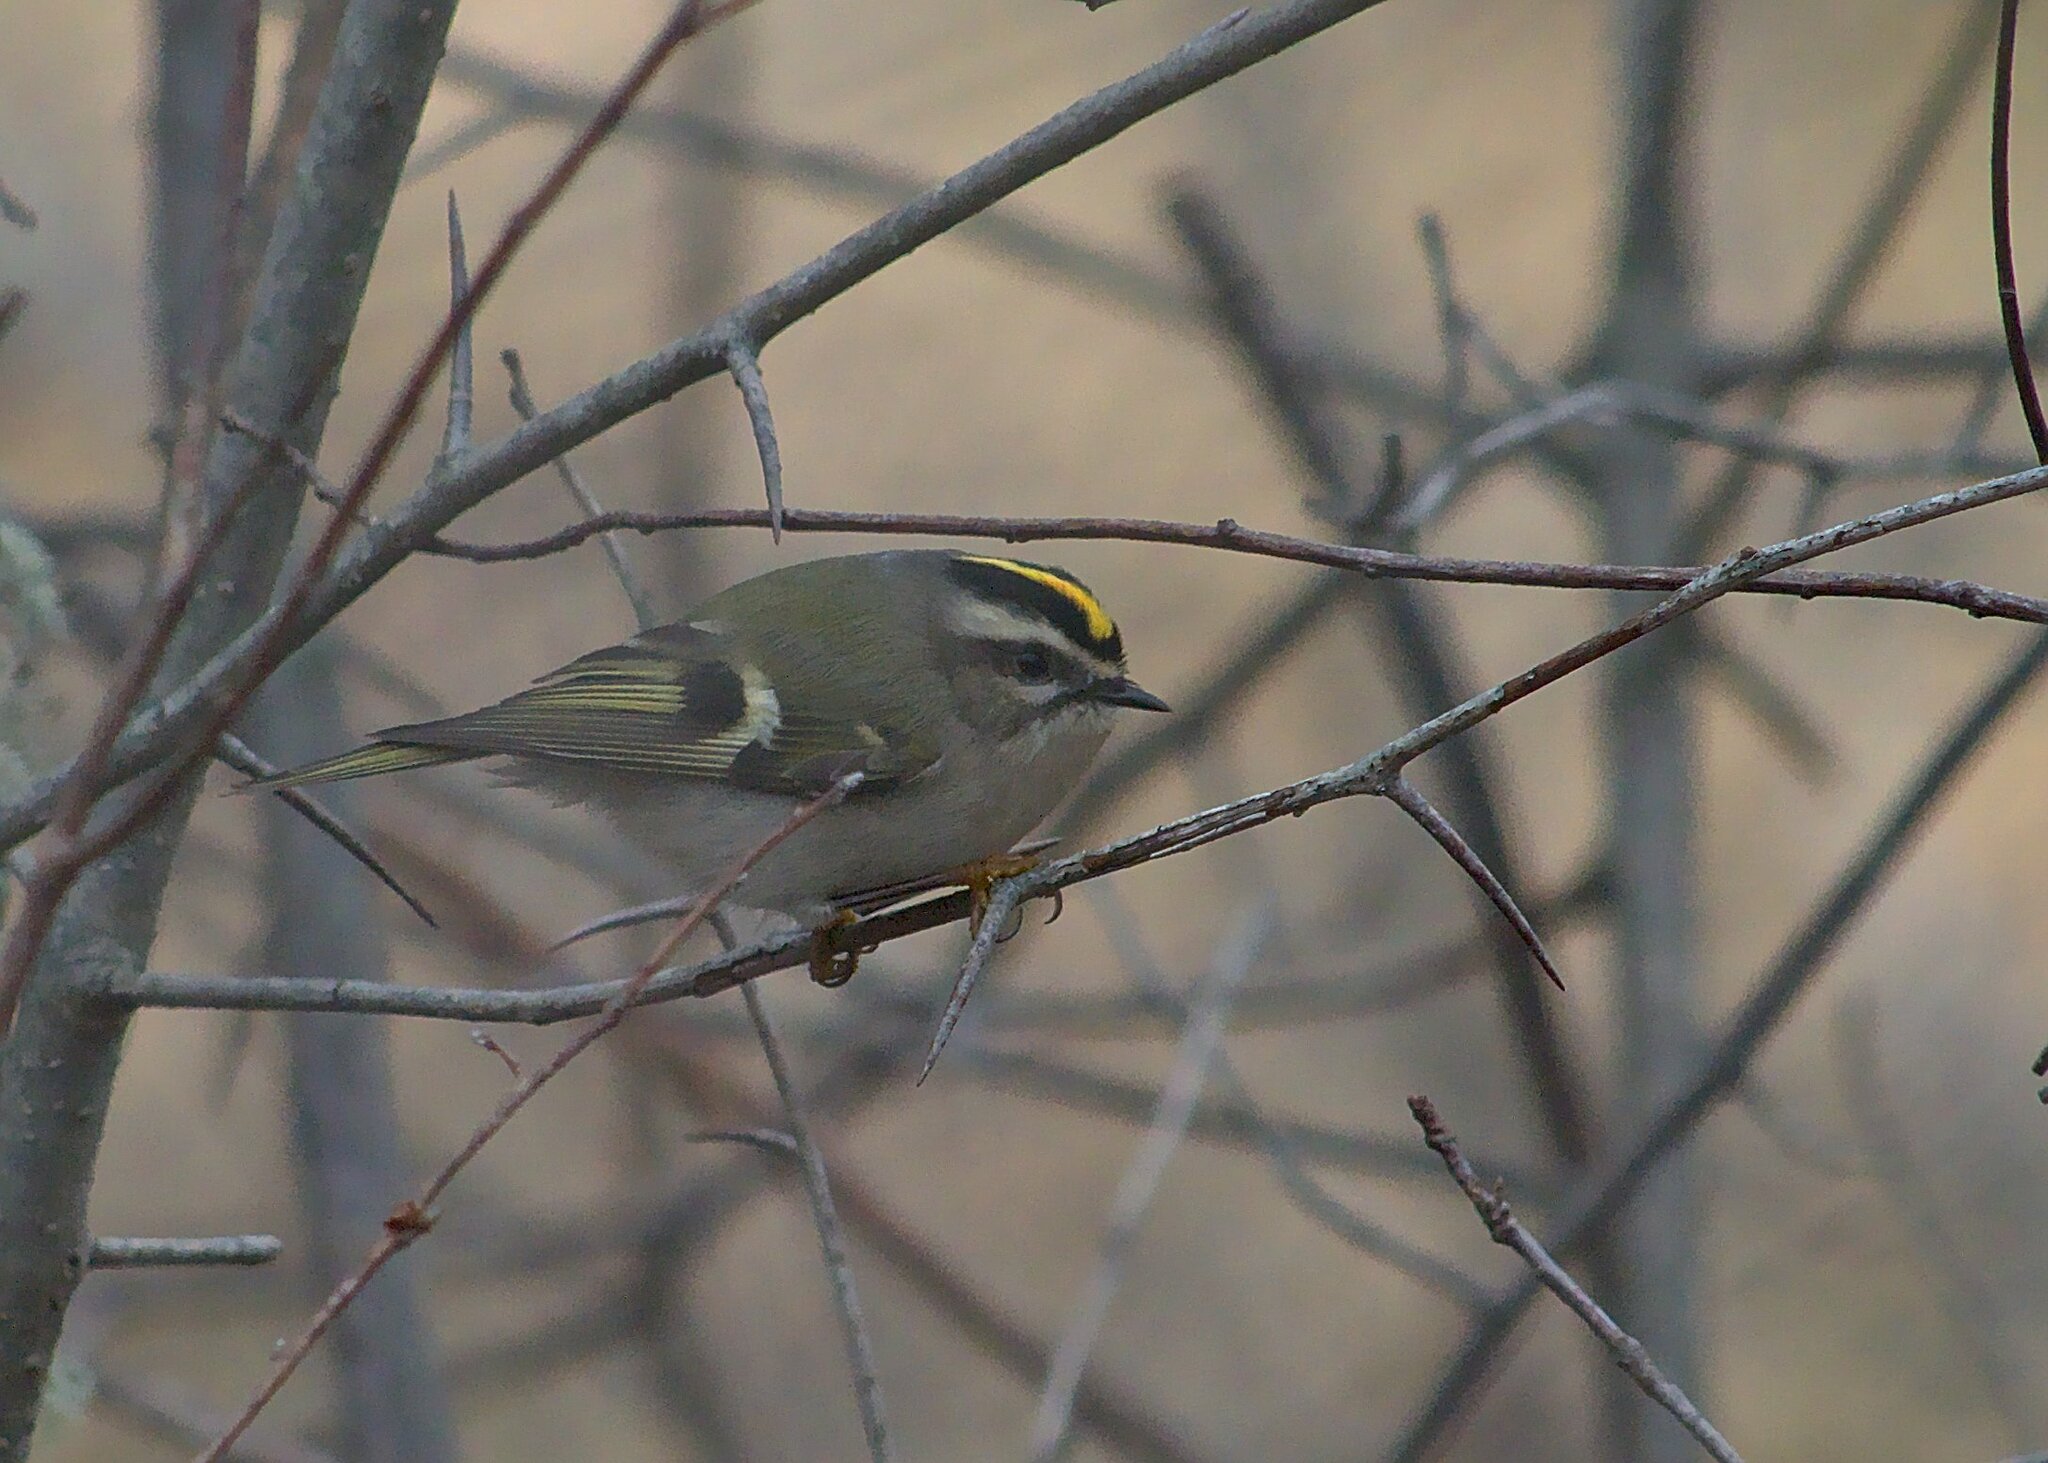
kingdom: Animalia
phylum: Chordata
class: Aves
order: Passeriformes
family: Regulidae
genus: Regulus
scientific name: Regulus satrapa
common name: Golden-crowned kinglet
